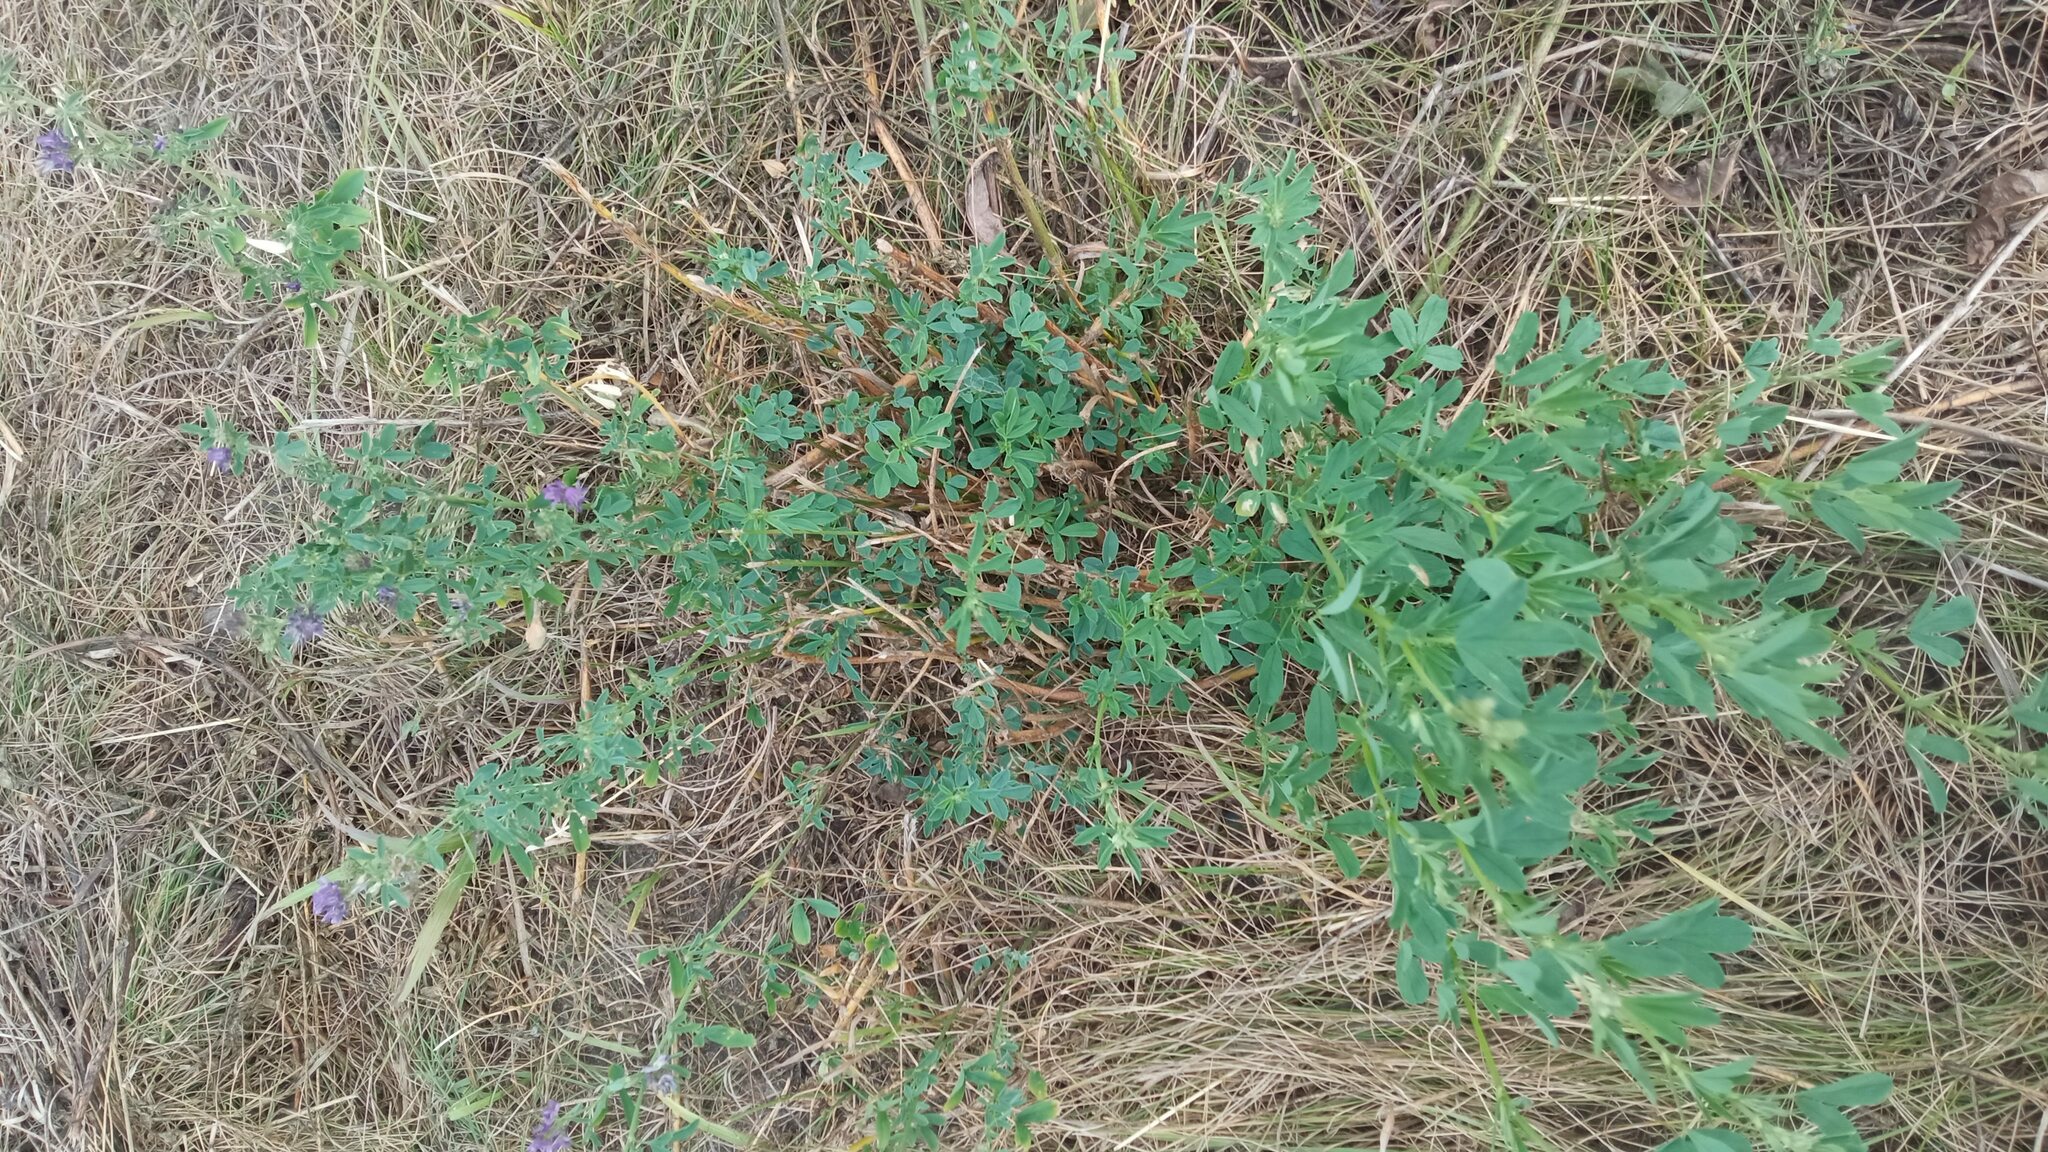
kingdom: Plantae
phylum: Tracheophyta
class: Magnoliopsida
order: Fabales
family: Fabaceae
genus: Medicago
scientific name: Medicago varia
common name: Sand lucerne
